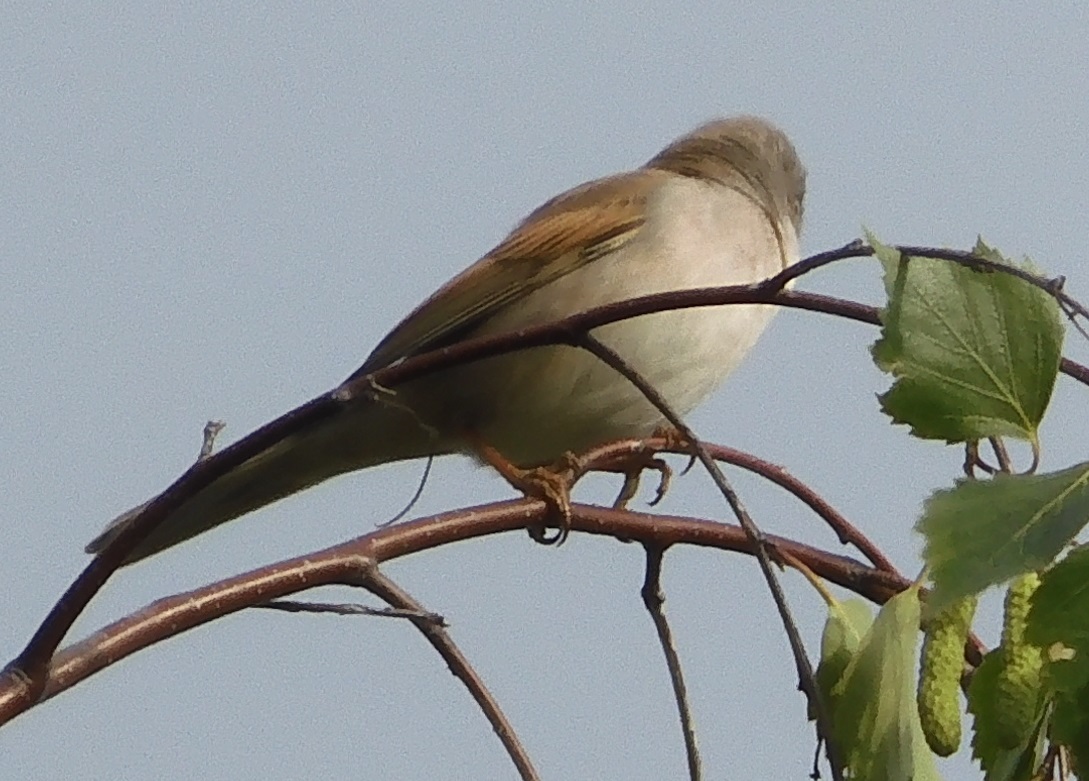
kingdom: Animalia
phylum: Chordata
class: Aves
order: Passeriformes
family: Sylviidae
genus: Sylvia
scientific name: Sylvia communis
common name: Common whitethroat
